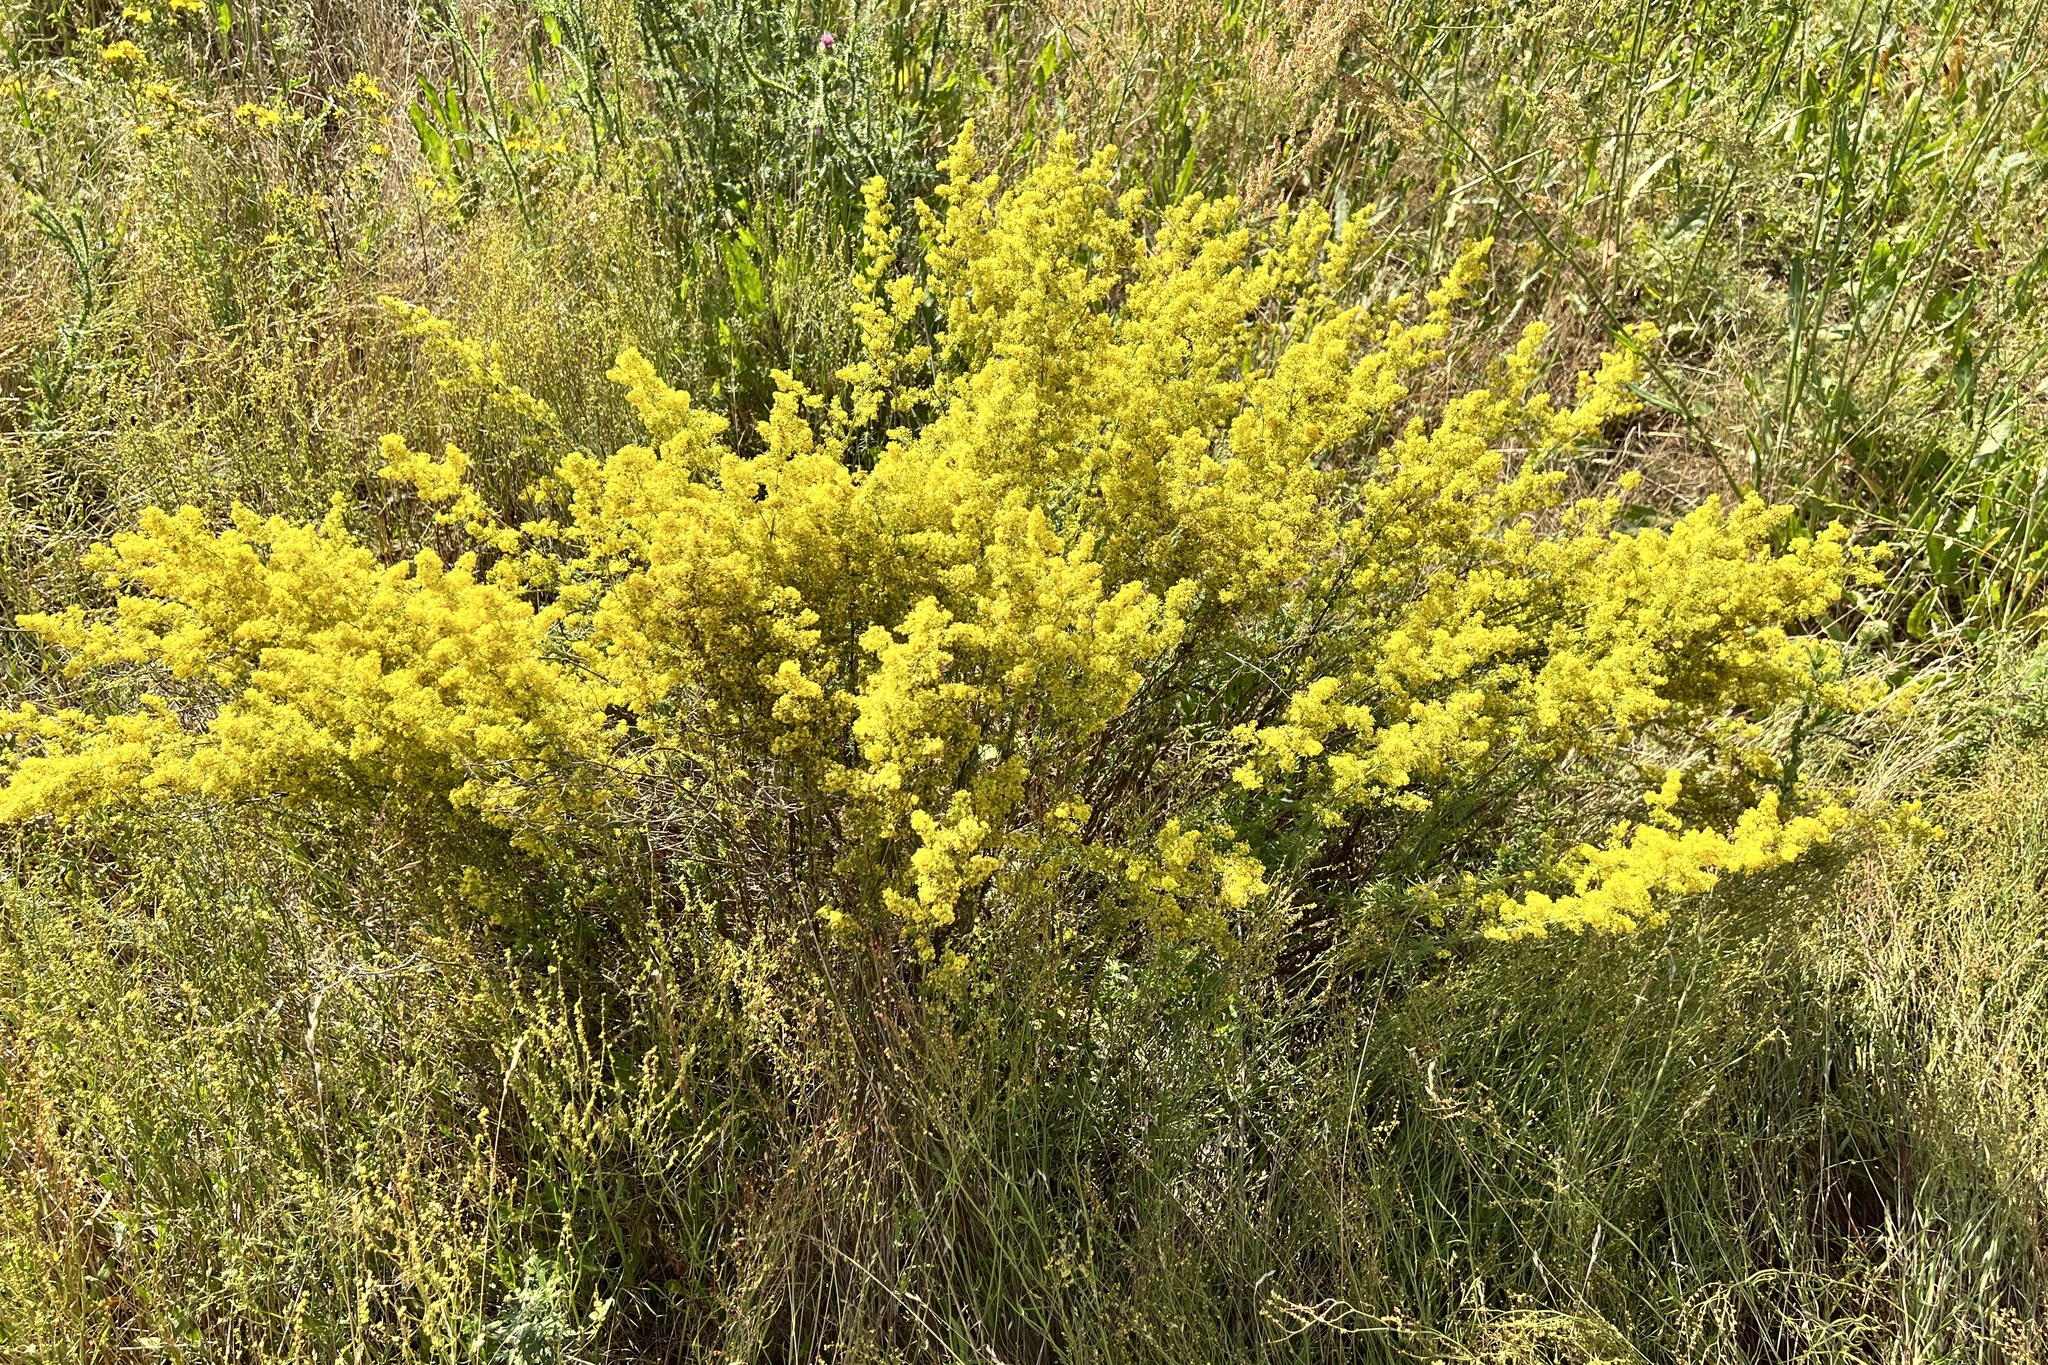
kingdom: Plantae
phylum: Tracheophyta
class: Magnoliopsida
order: Gentianales
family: Rubiaceae
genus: Galium
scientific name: Galium verum
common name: Lady's bedstraw
